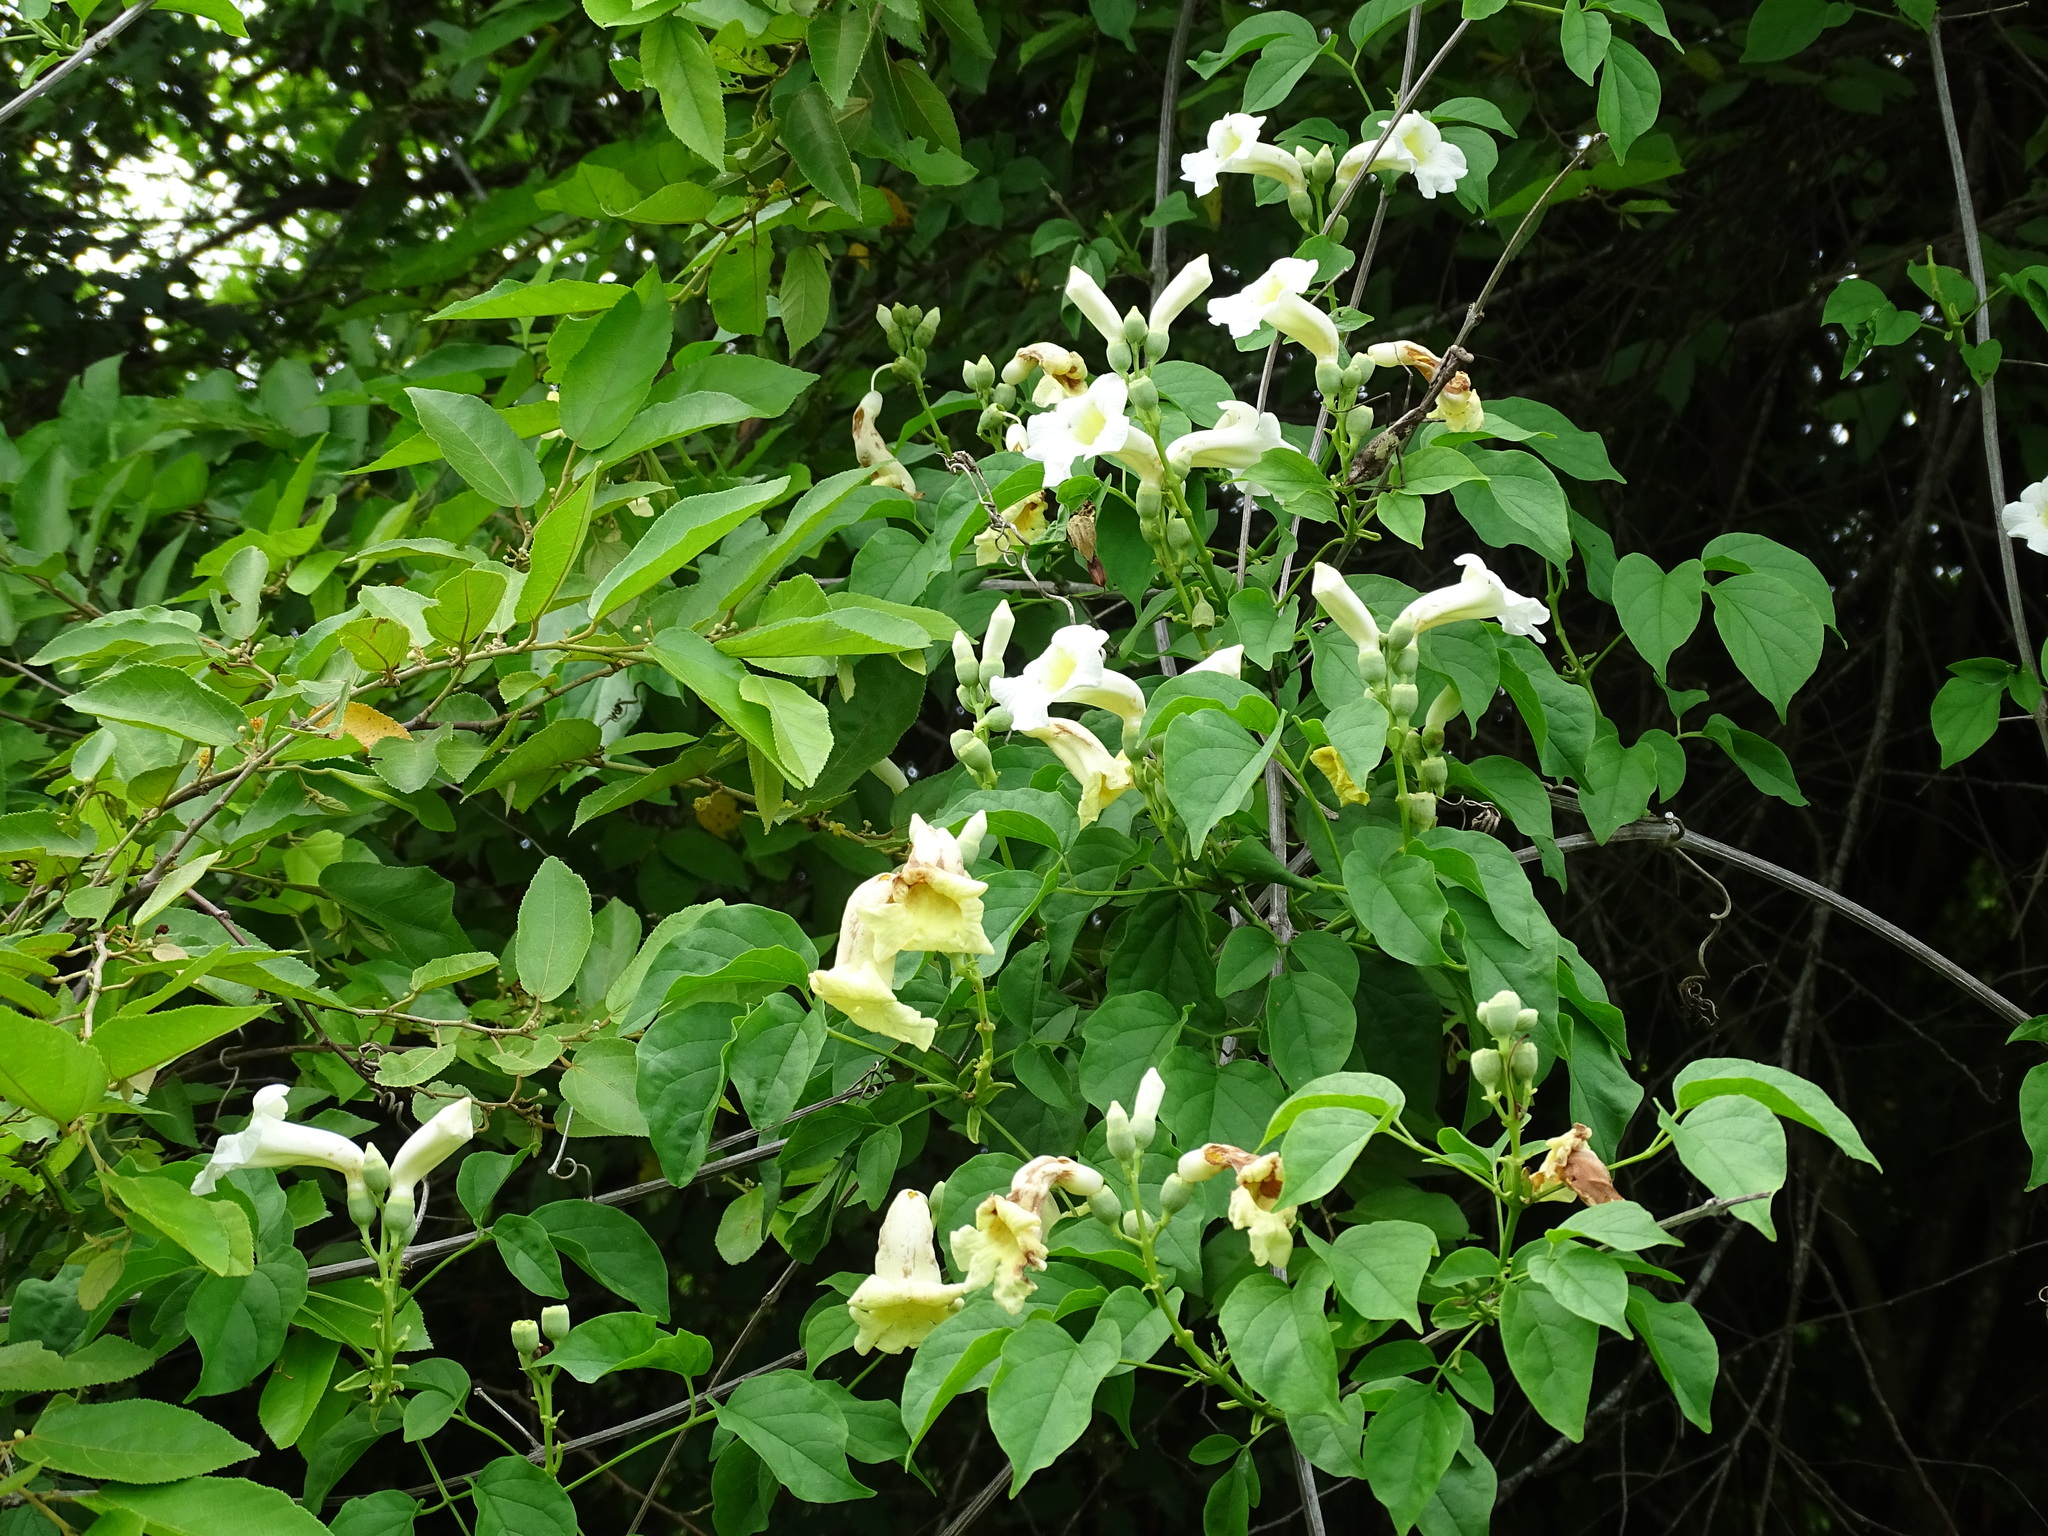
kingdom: Plantae
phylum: Tracheophyta
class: Magnoliopsida
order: Lamiales
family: Bignoniaceae
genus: Amphilophium
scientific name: Amphilophium crucigerum
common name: Monkey comb
